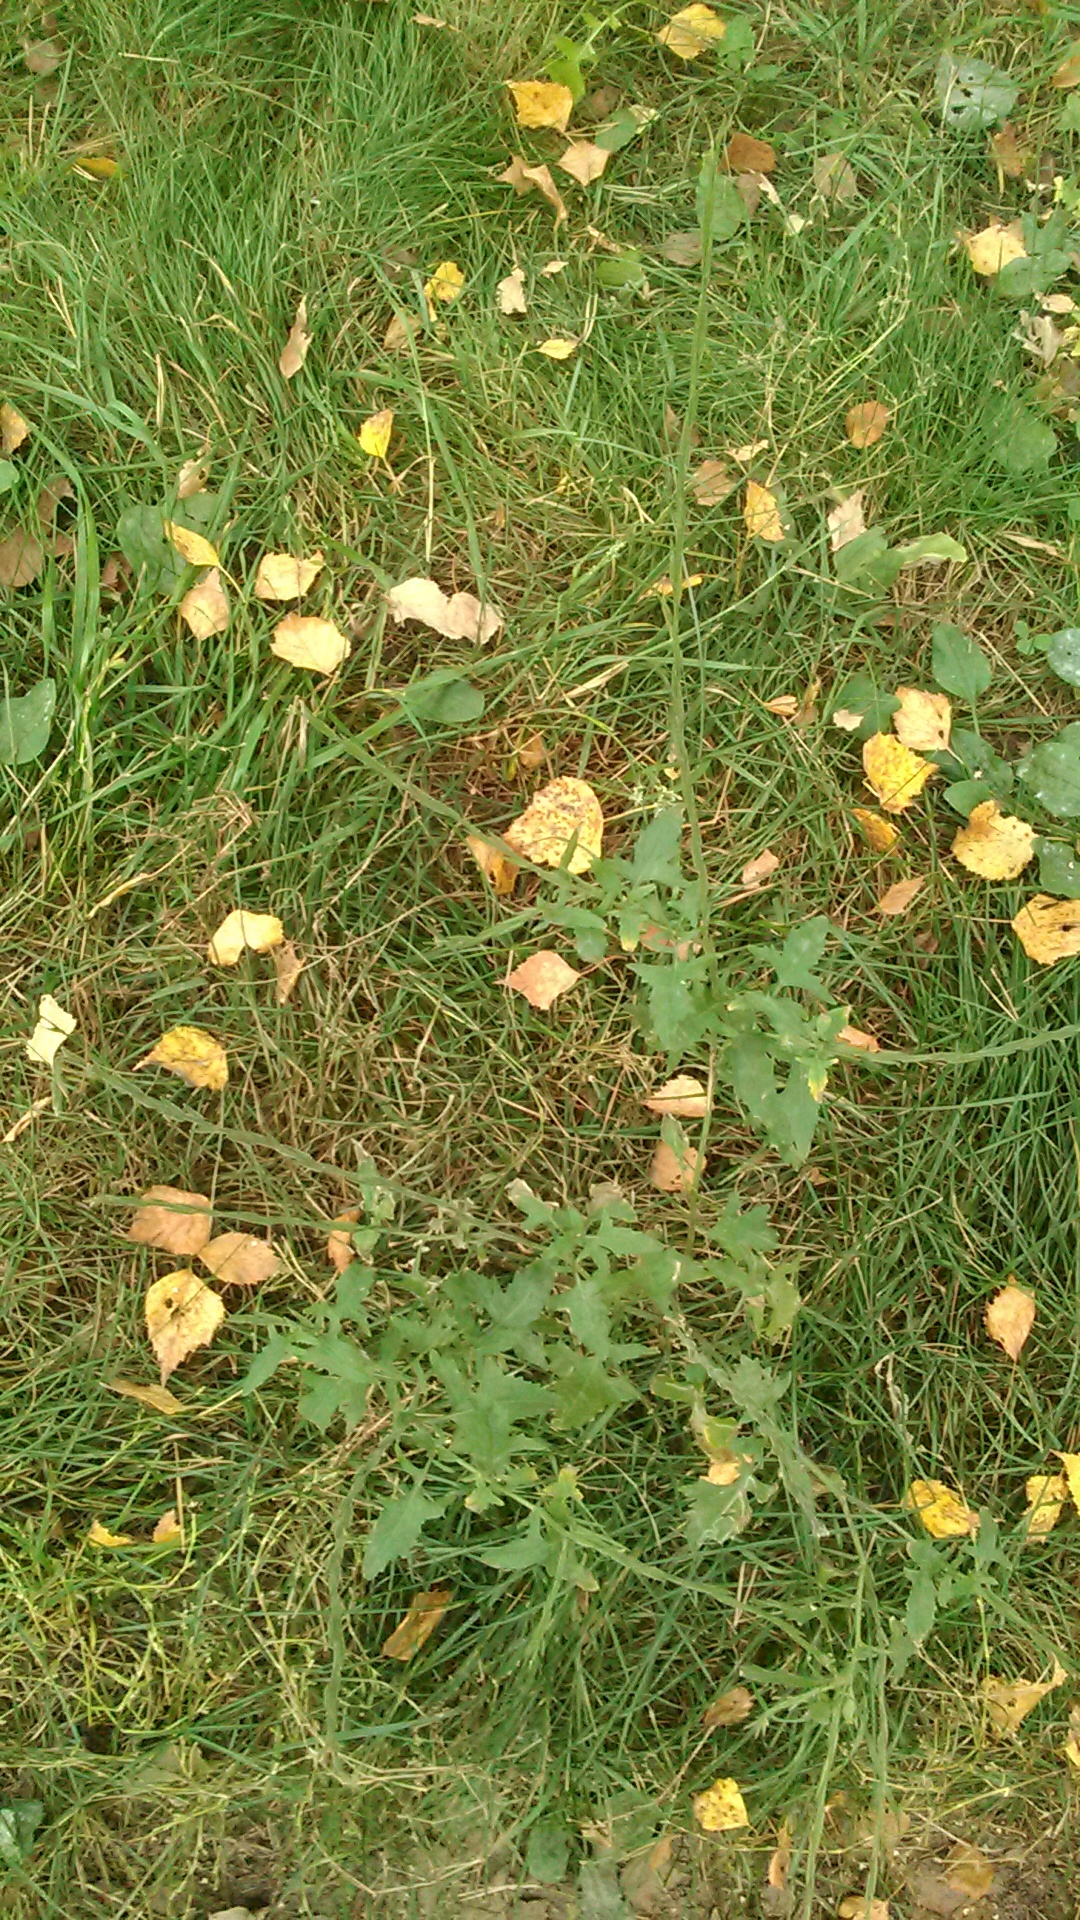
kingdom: Plantae
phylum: Tracheophyta
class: Magnoliopsida
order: Brassicales
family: Brassicaceae
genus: Sisymbrium
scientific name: Sisymbrium officinale
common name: Hedge mustard
